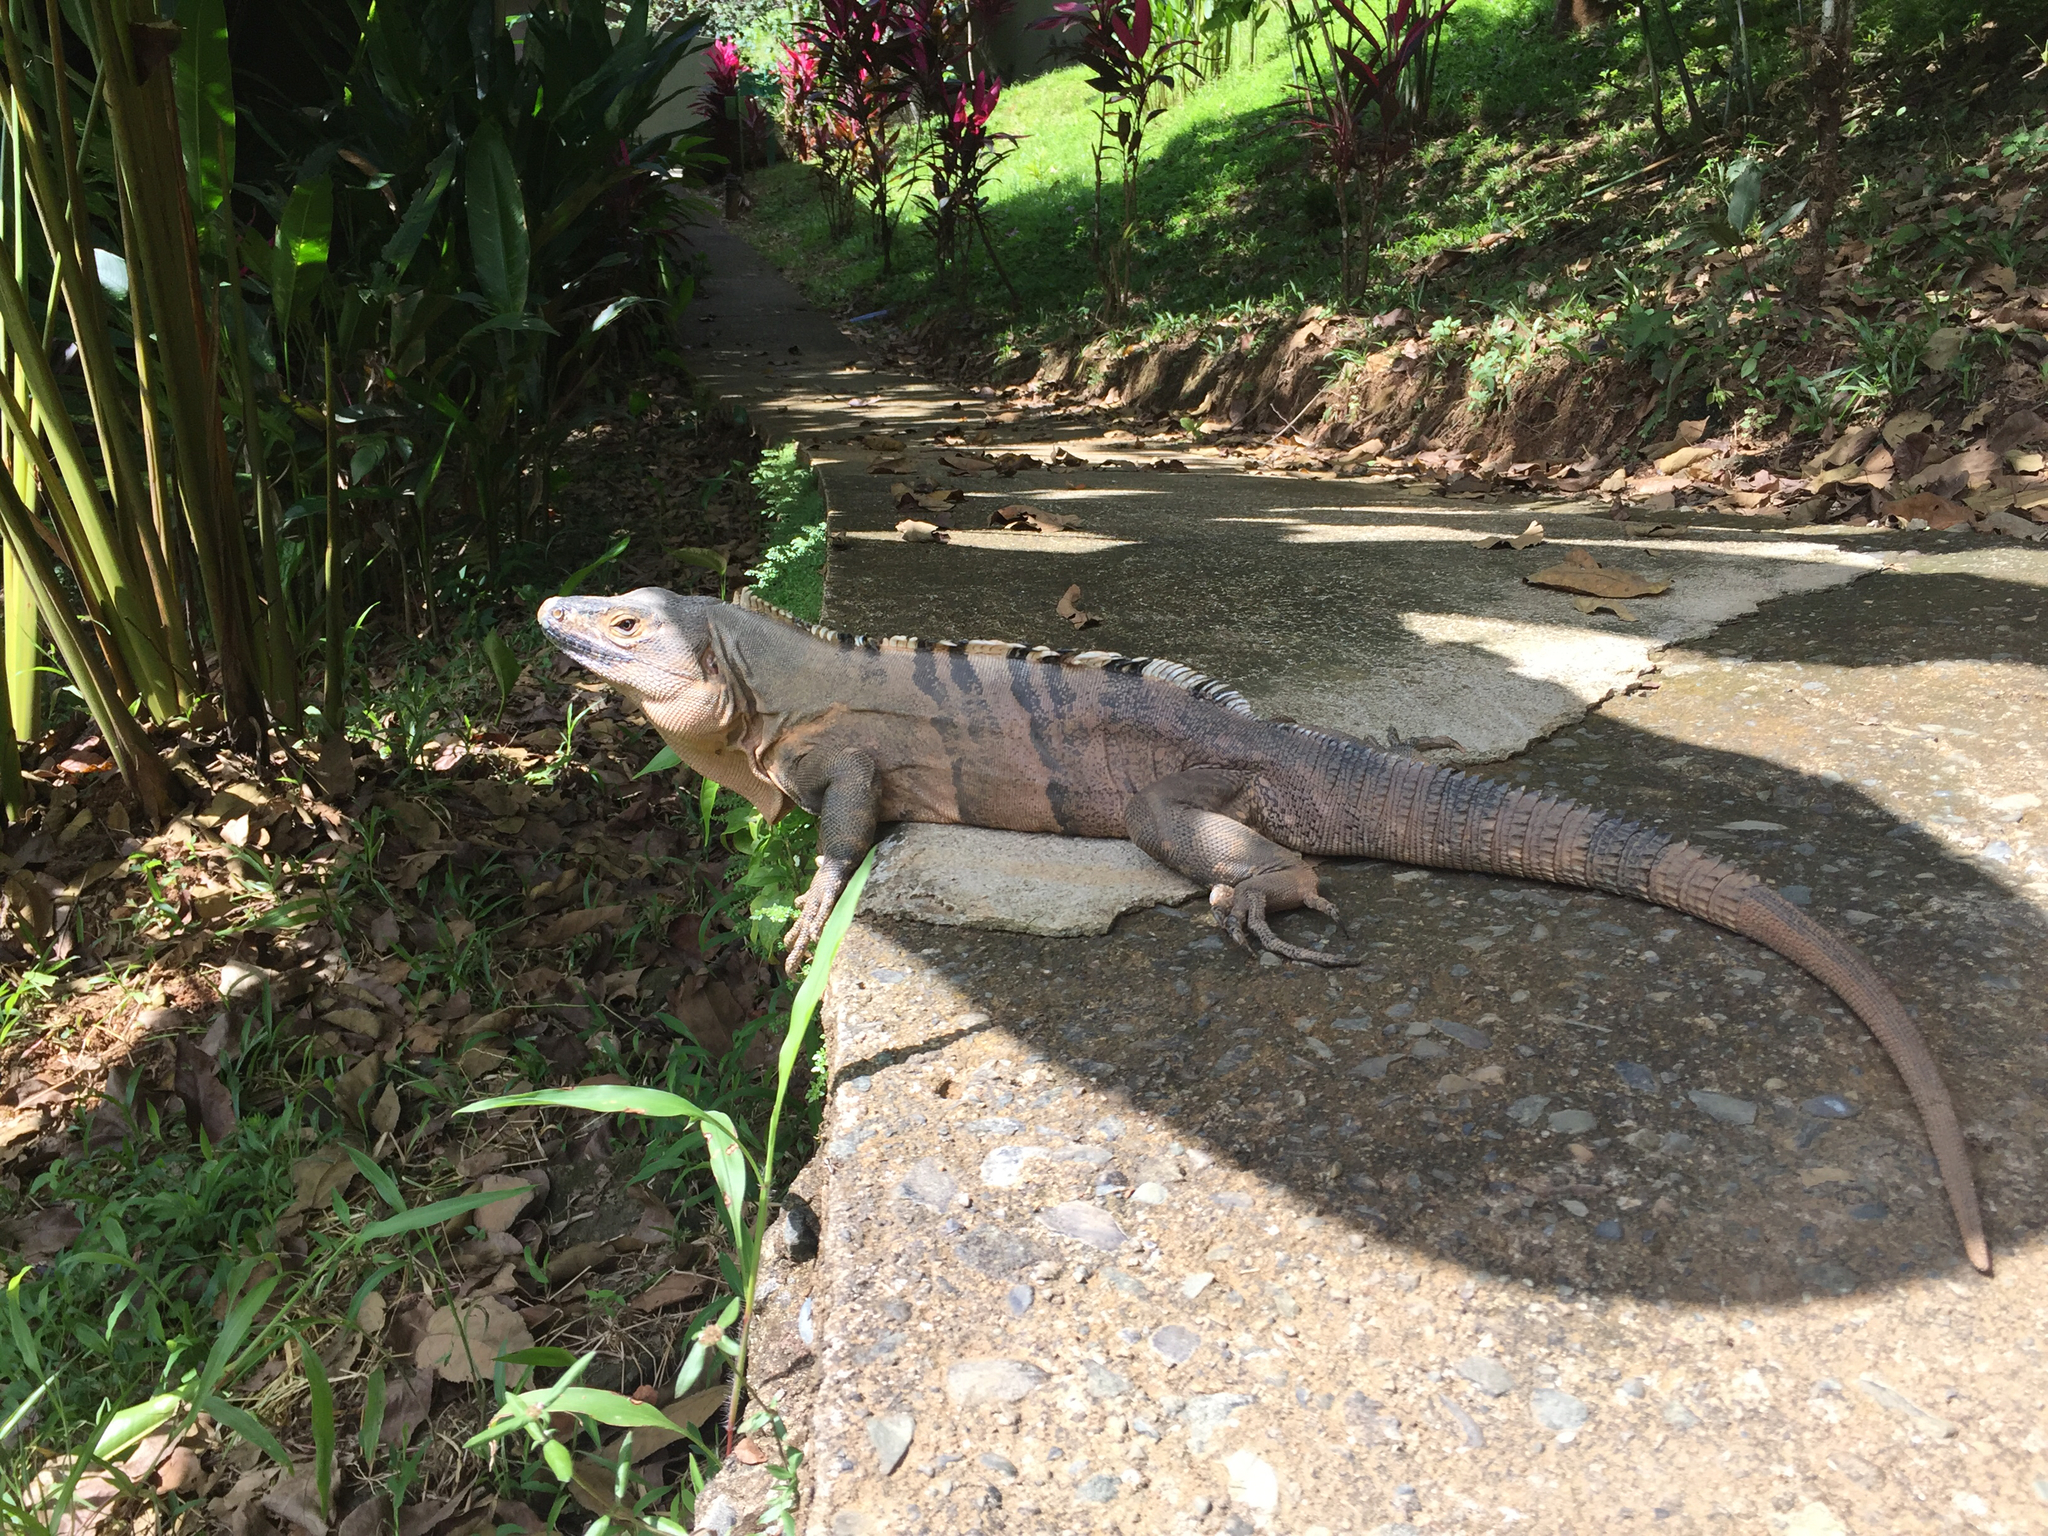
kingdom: Animalia
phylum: Chordata
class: Squamata
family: Iguanidae
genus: Ctenosaura
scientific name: Ctenosaura similis
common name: Black spiny-tailed iguana
